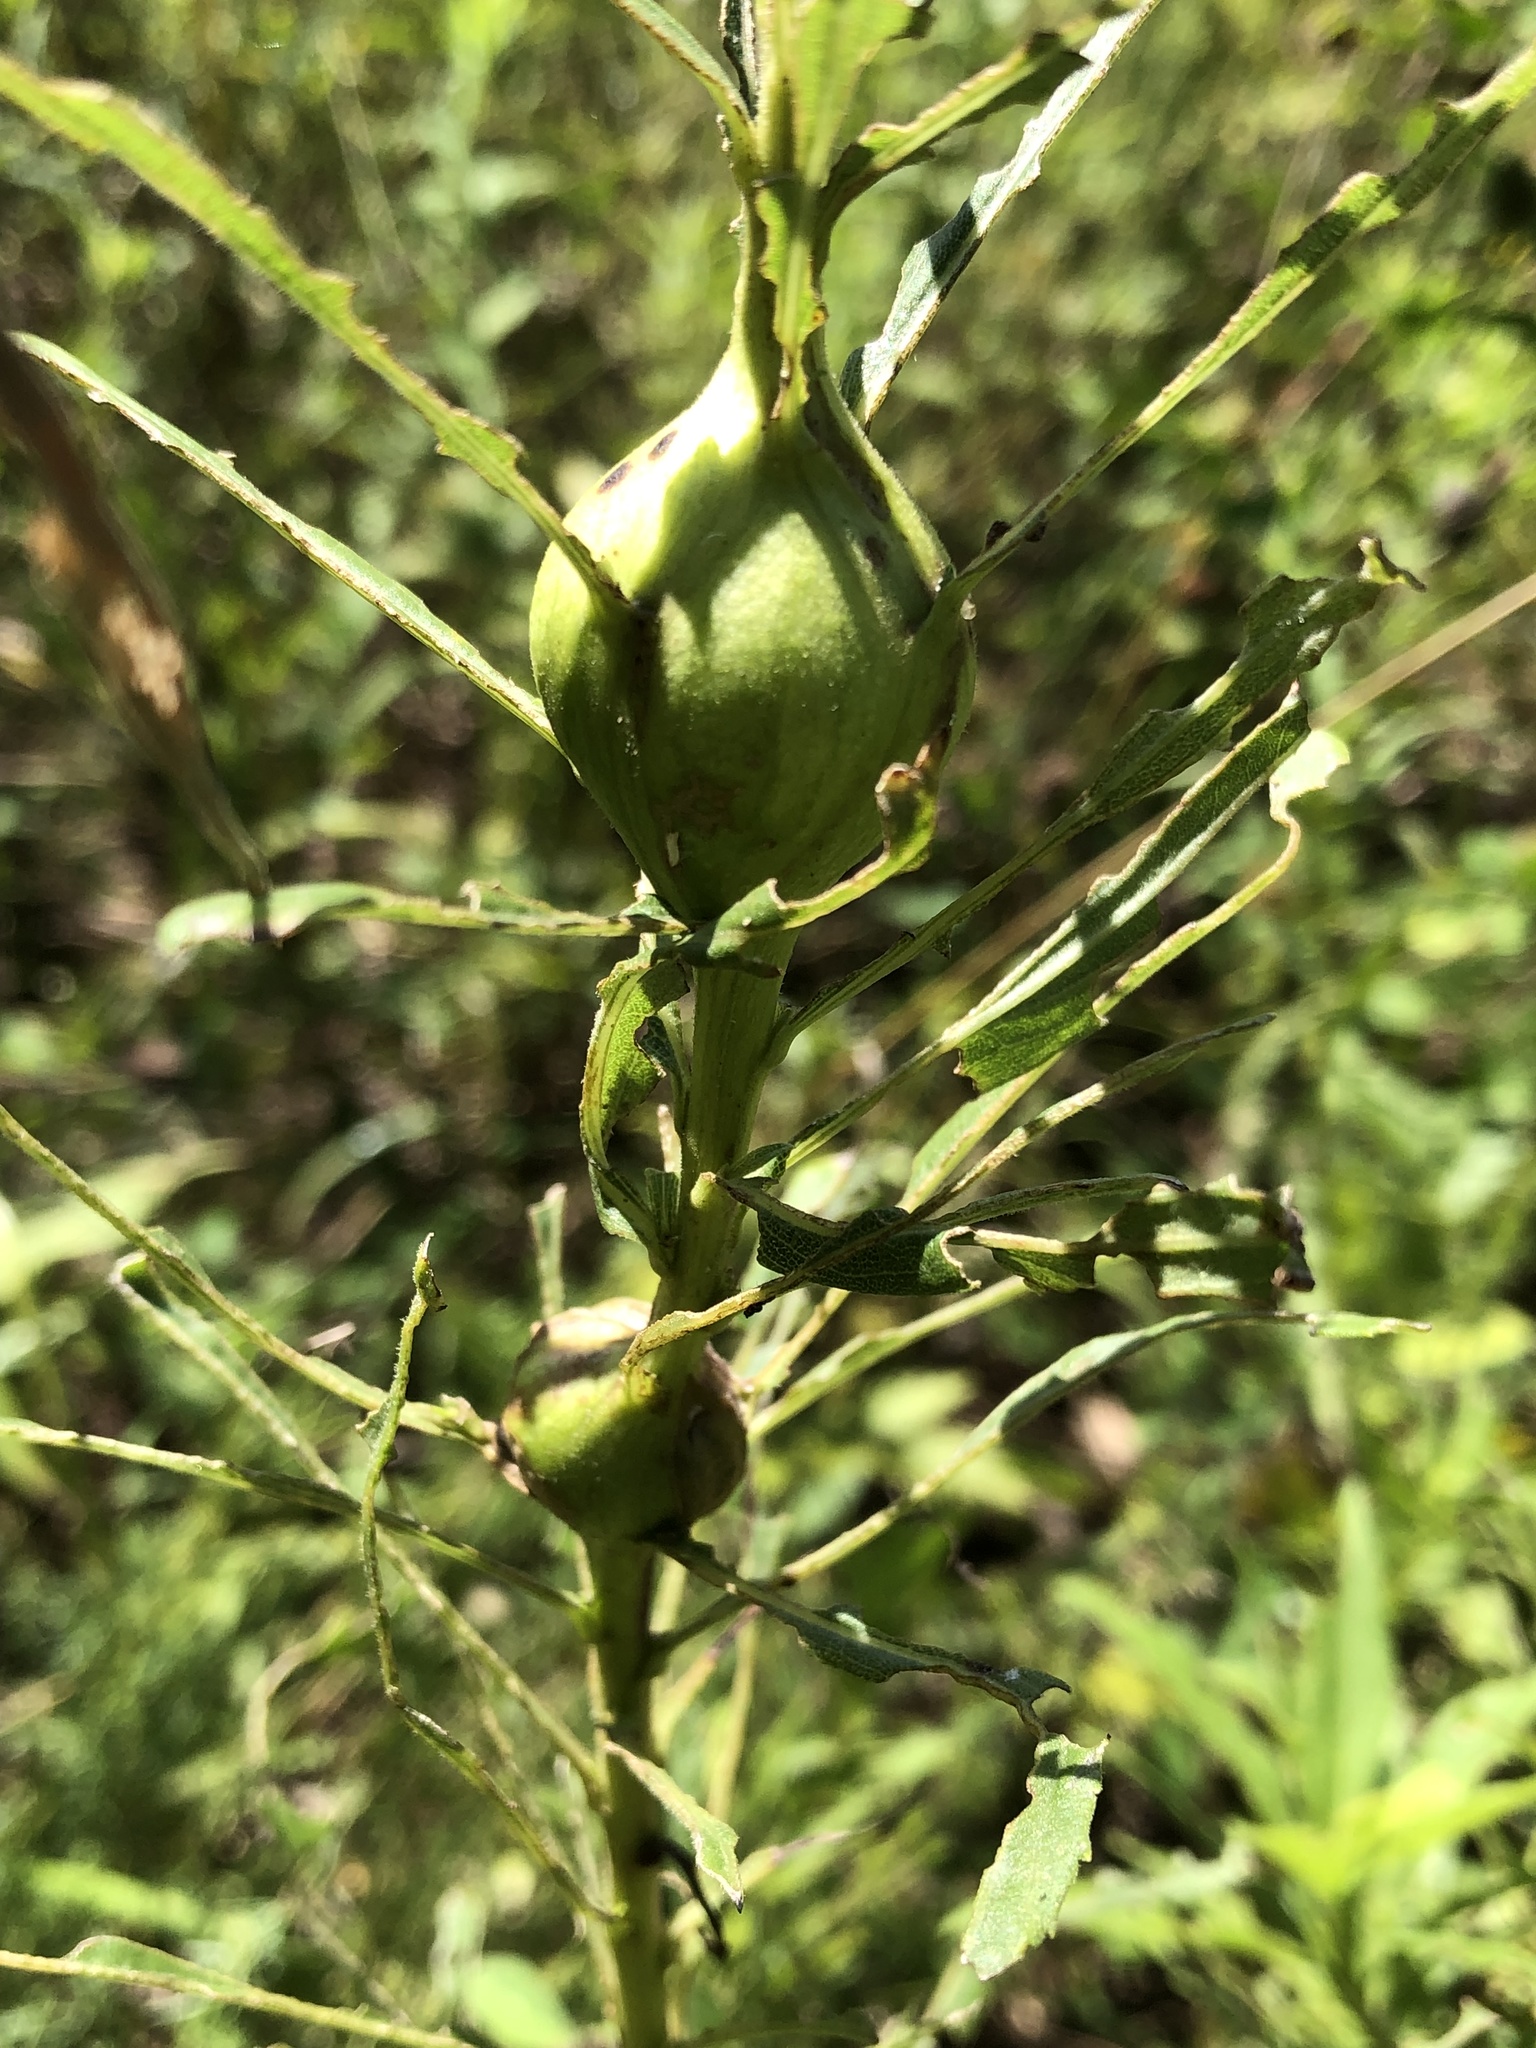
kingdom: Animalia
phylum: Arthropoda
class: Insecta
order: Diptera
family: Tephritidae
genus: Eurosta
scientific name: Eurosta solidaginis
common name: Goldenrod gall fly
